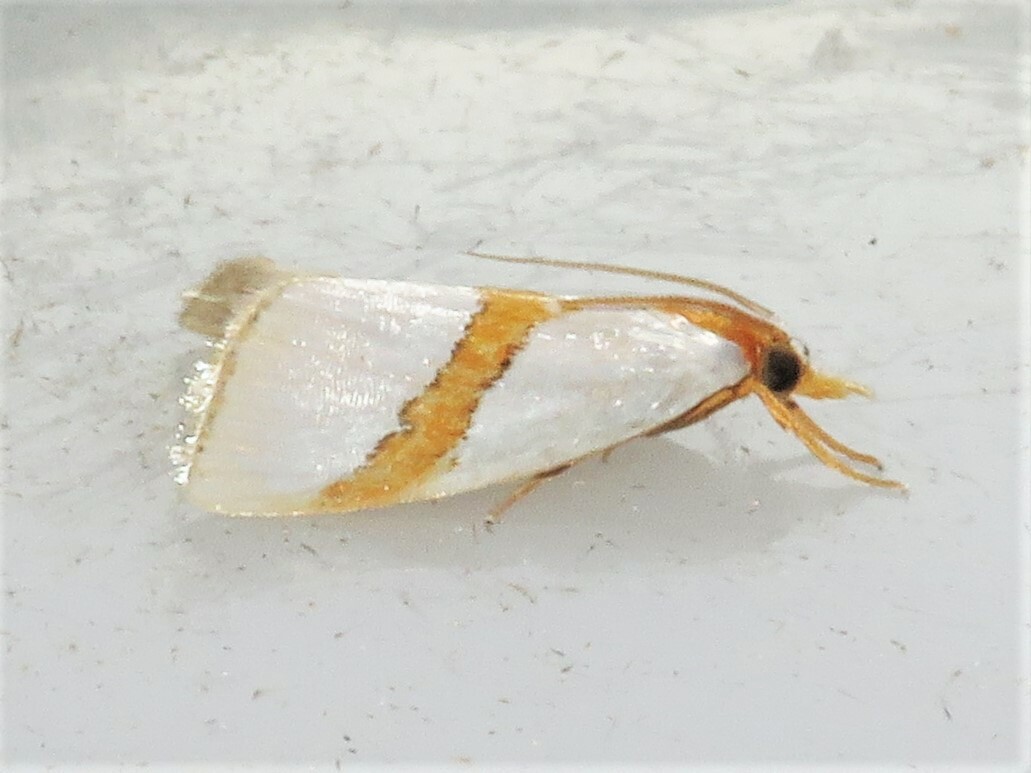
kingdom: Animalia
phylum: Arthropoda
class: Insecta
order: Lepidoptera
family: Crambidae
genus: Vaxi
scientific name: Vaxi critica
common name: Straight-lined vaxi moth
